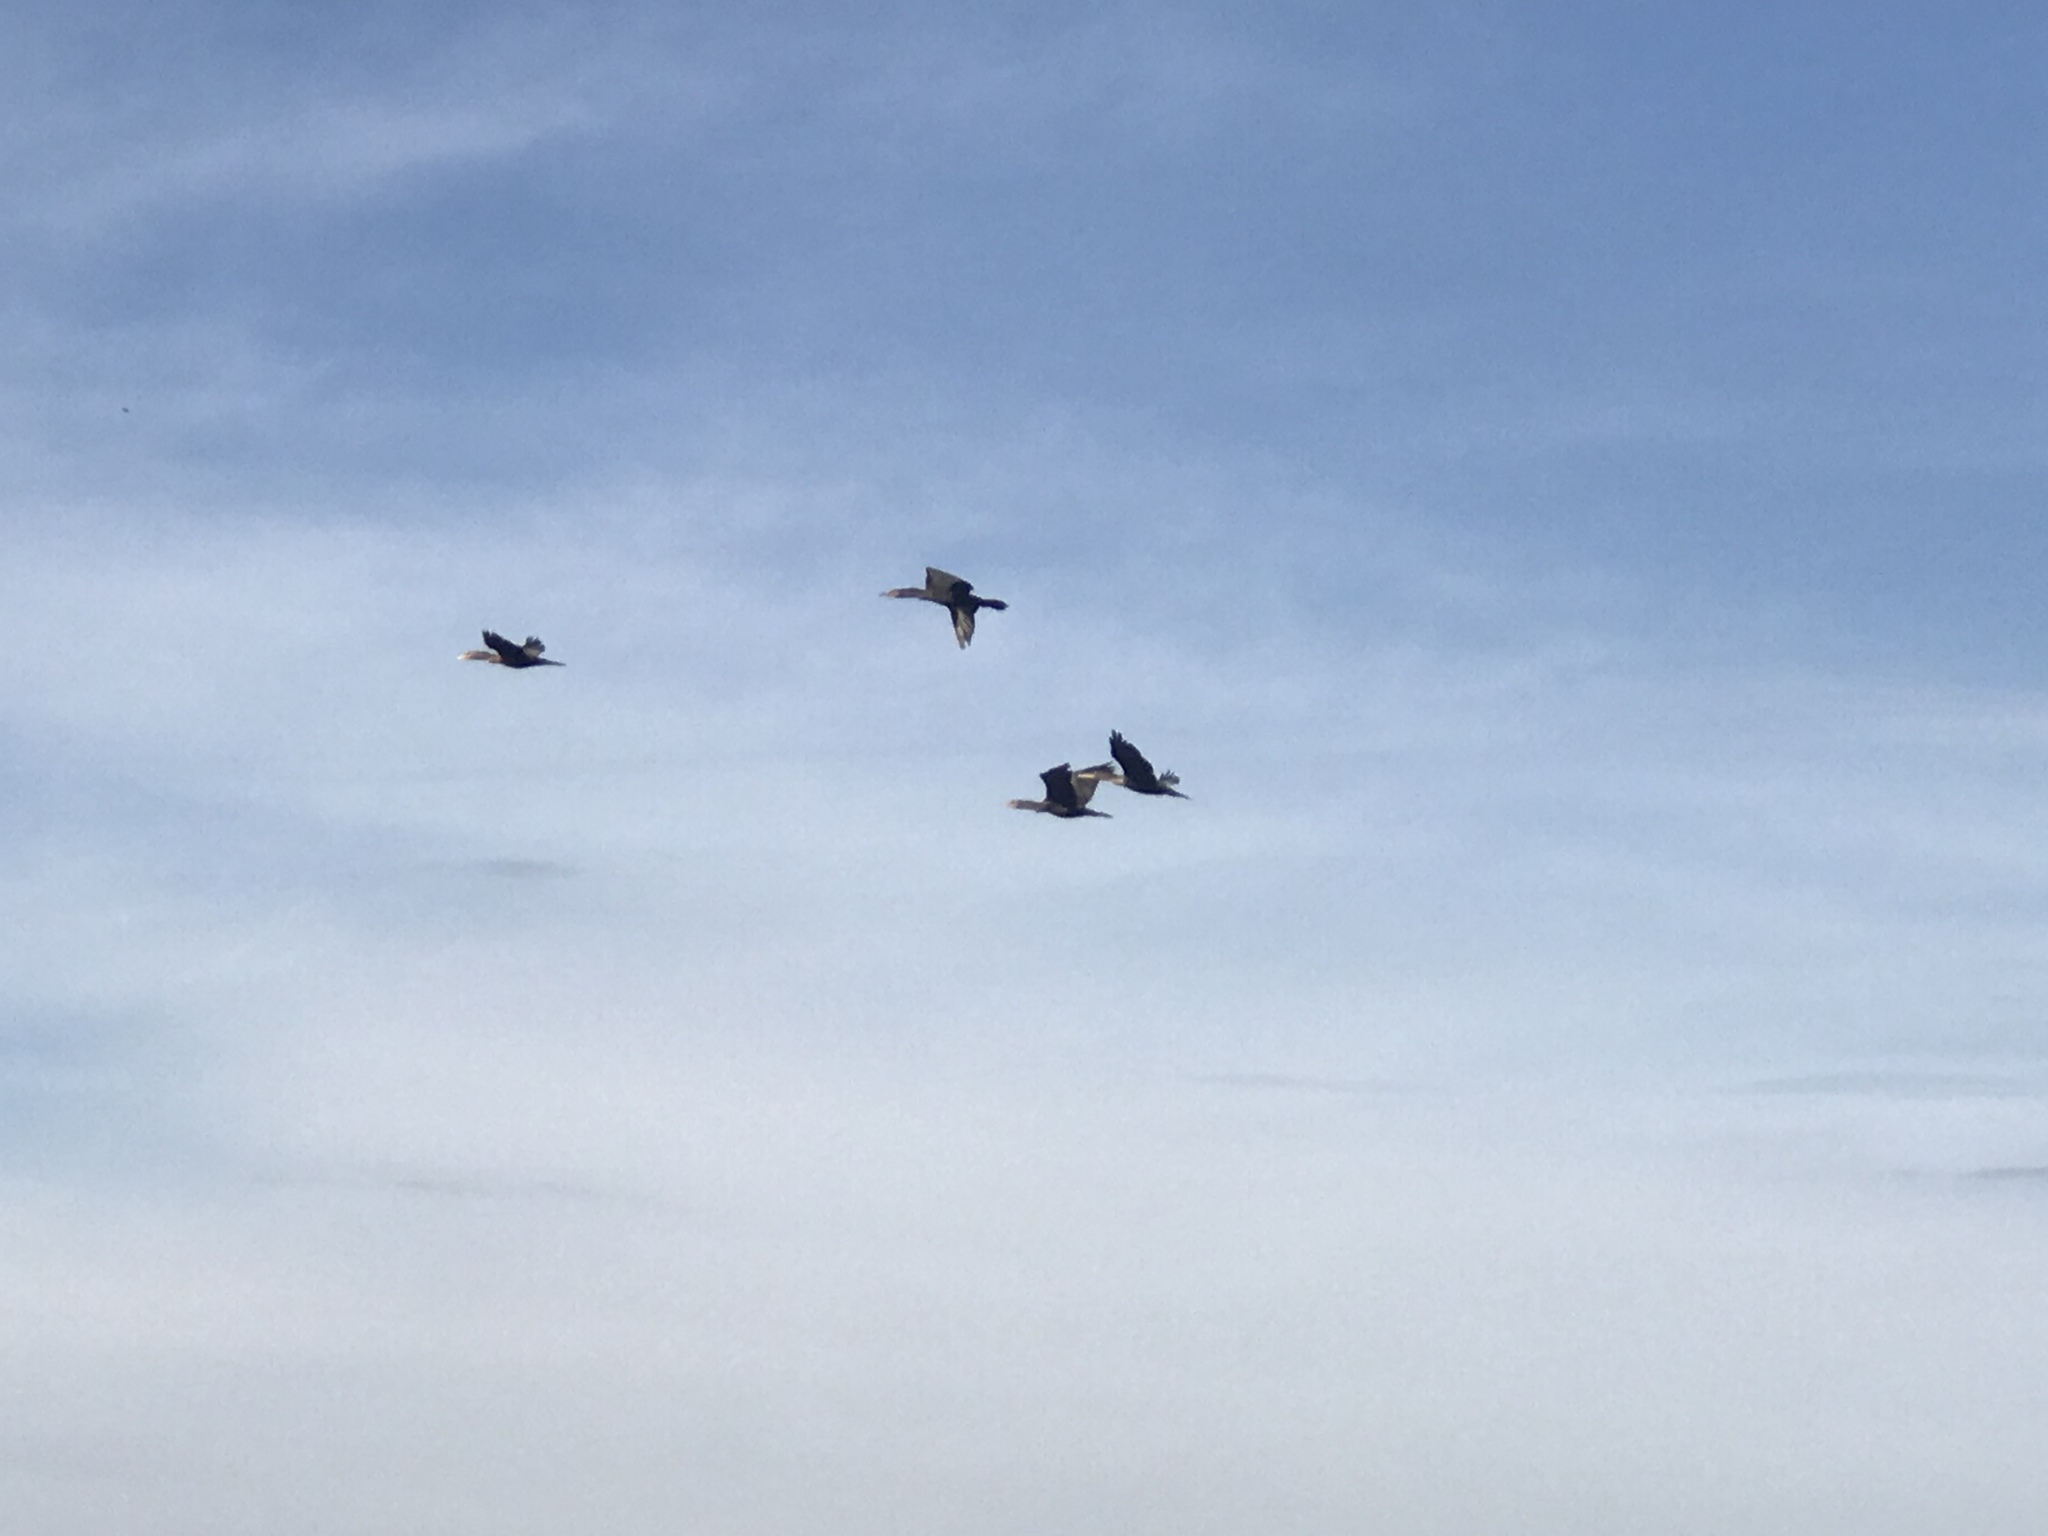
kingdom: Animalia
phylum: Chordata
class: Aves
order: Suliformes
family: Phalacrocoracidae
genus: Phalacrocorax
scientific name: Phalacrocorax auritus
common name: Double-crested cormorant
